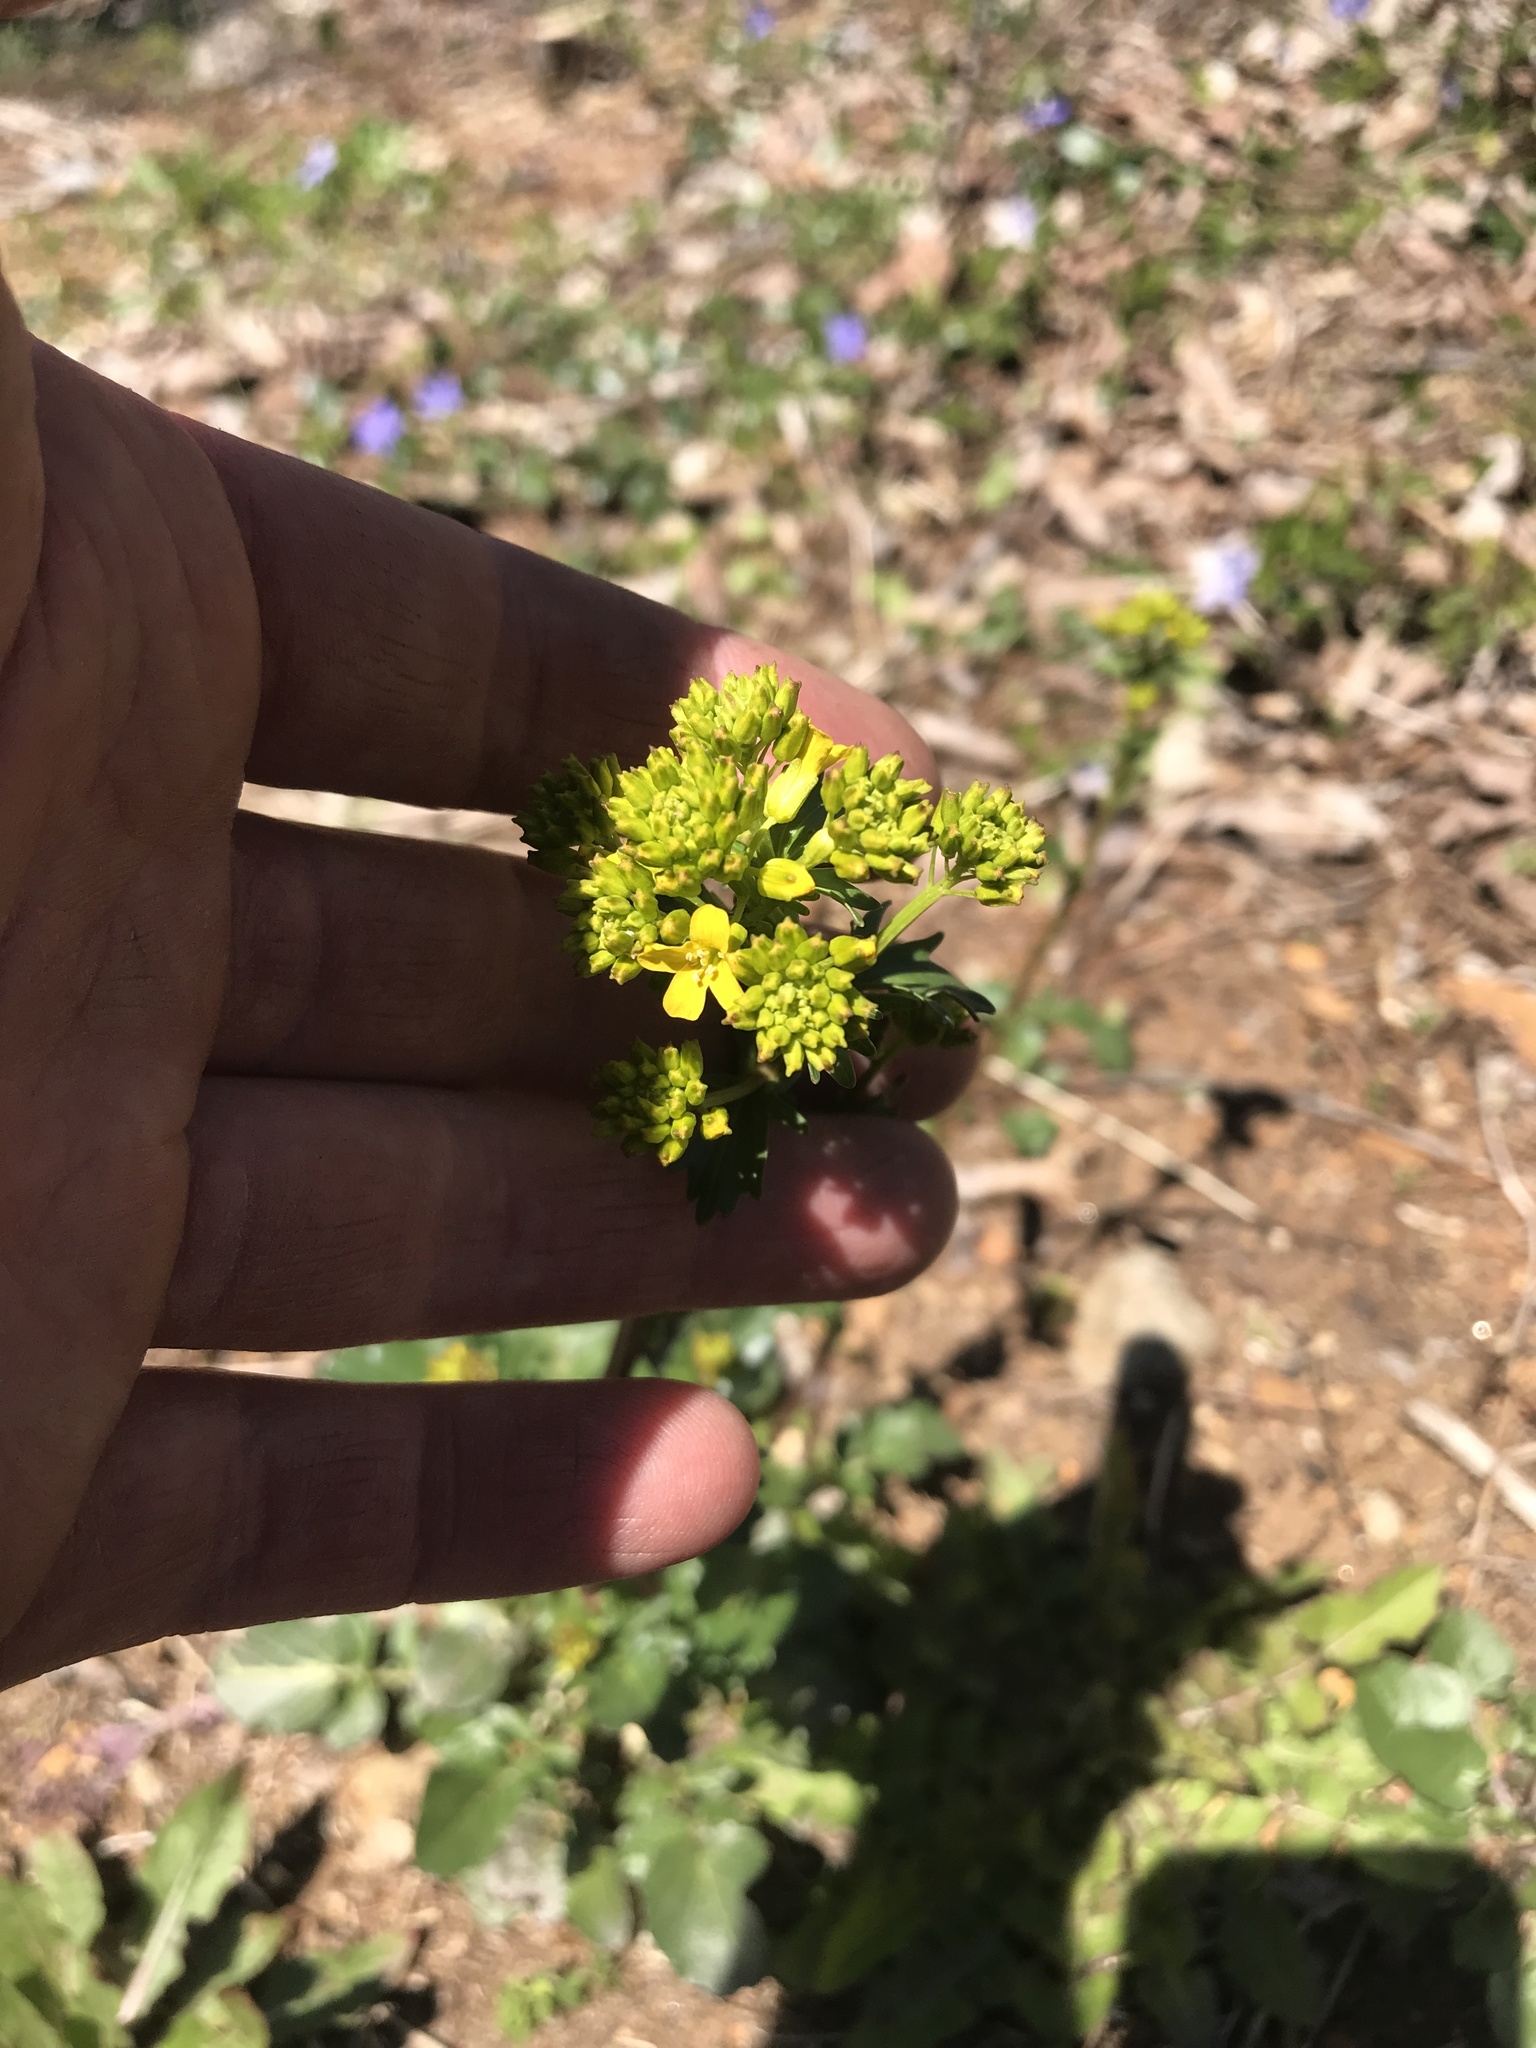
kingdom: Plantae
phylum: Tracheophyta
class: Magnoliopsida
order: Brassicales
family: Brassicaceae
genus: Barbarea
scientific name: Barbarea vulgaris
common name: Cressy-greens
